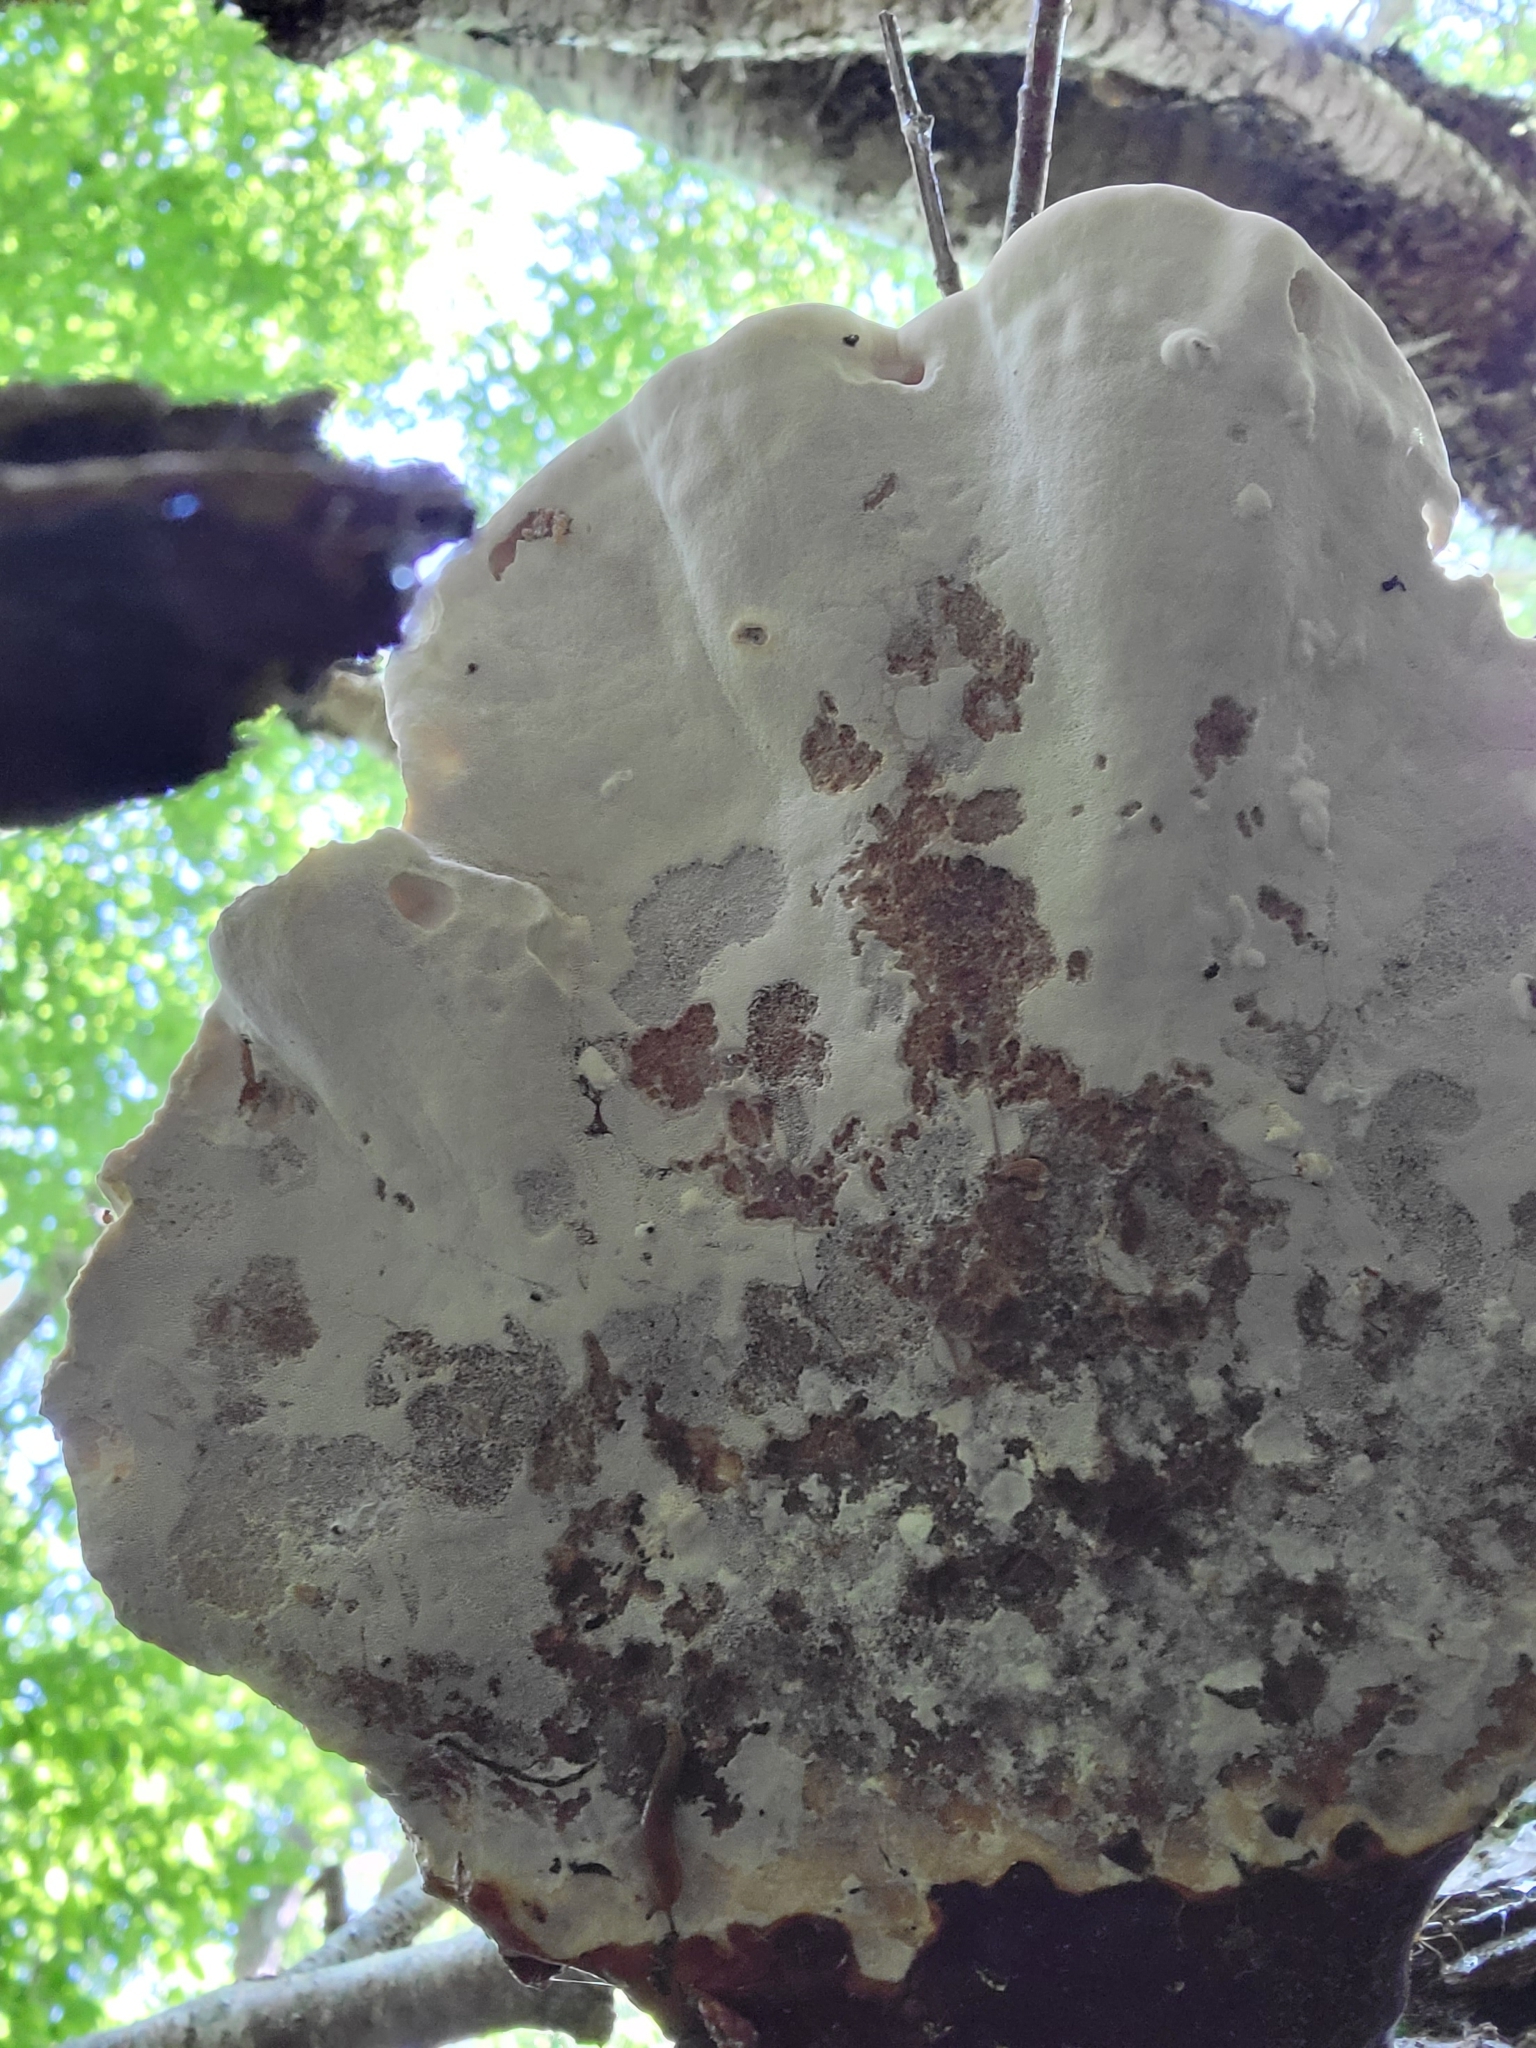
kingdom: Fungi
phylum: Basidiomycota
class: Agaricomycetes
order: Polyporales
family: Polyporaceae
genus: Ganoderma
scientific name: Ganoderma tsugae
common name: Hemlock varnish shelf
